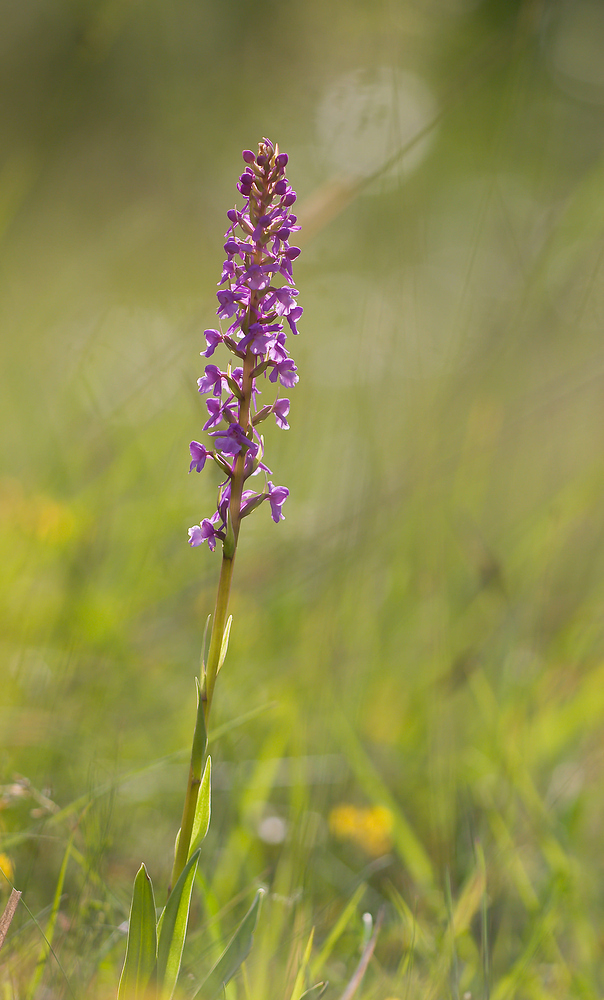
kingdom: Plantae
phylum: Tracheophyta
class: Liliopsida
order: Asparagales
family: Orchidaceae
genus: Gymnadenia
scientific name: Gymnadenia conopsea
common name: Fragrant orchid
